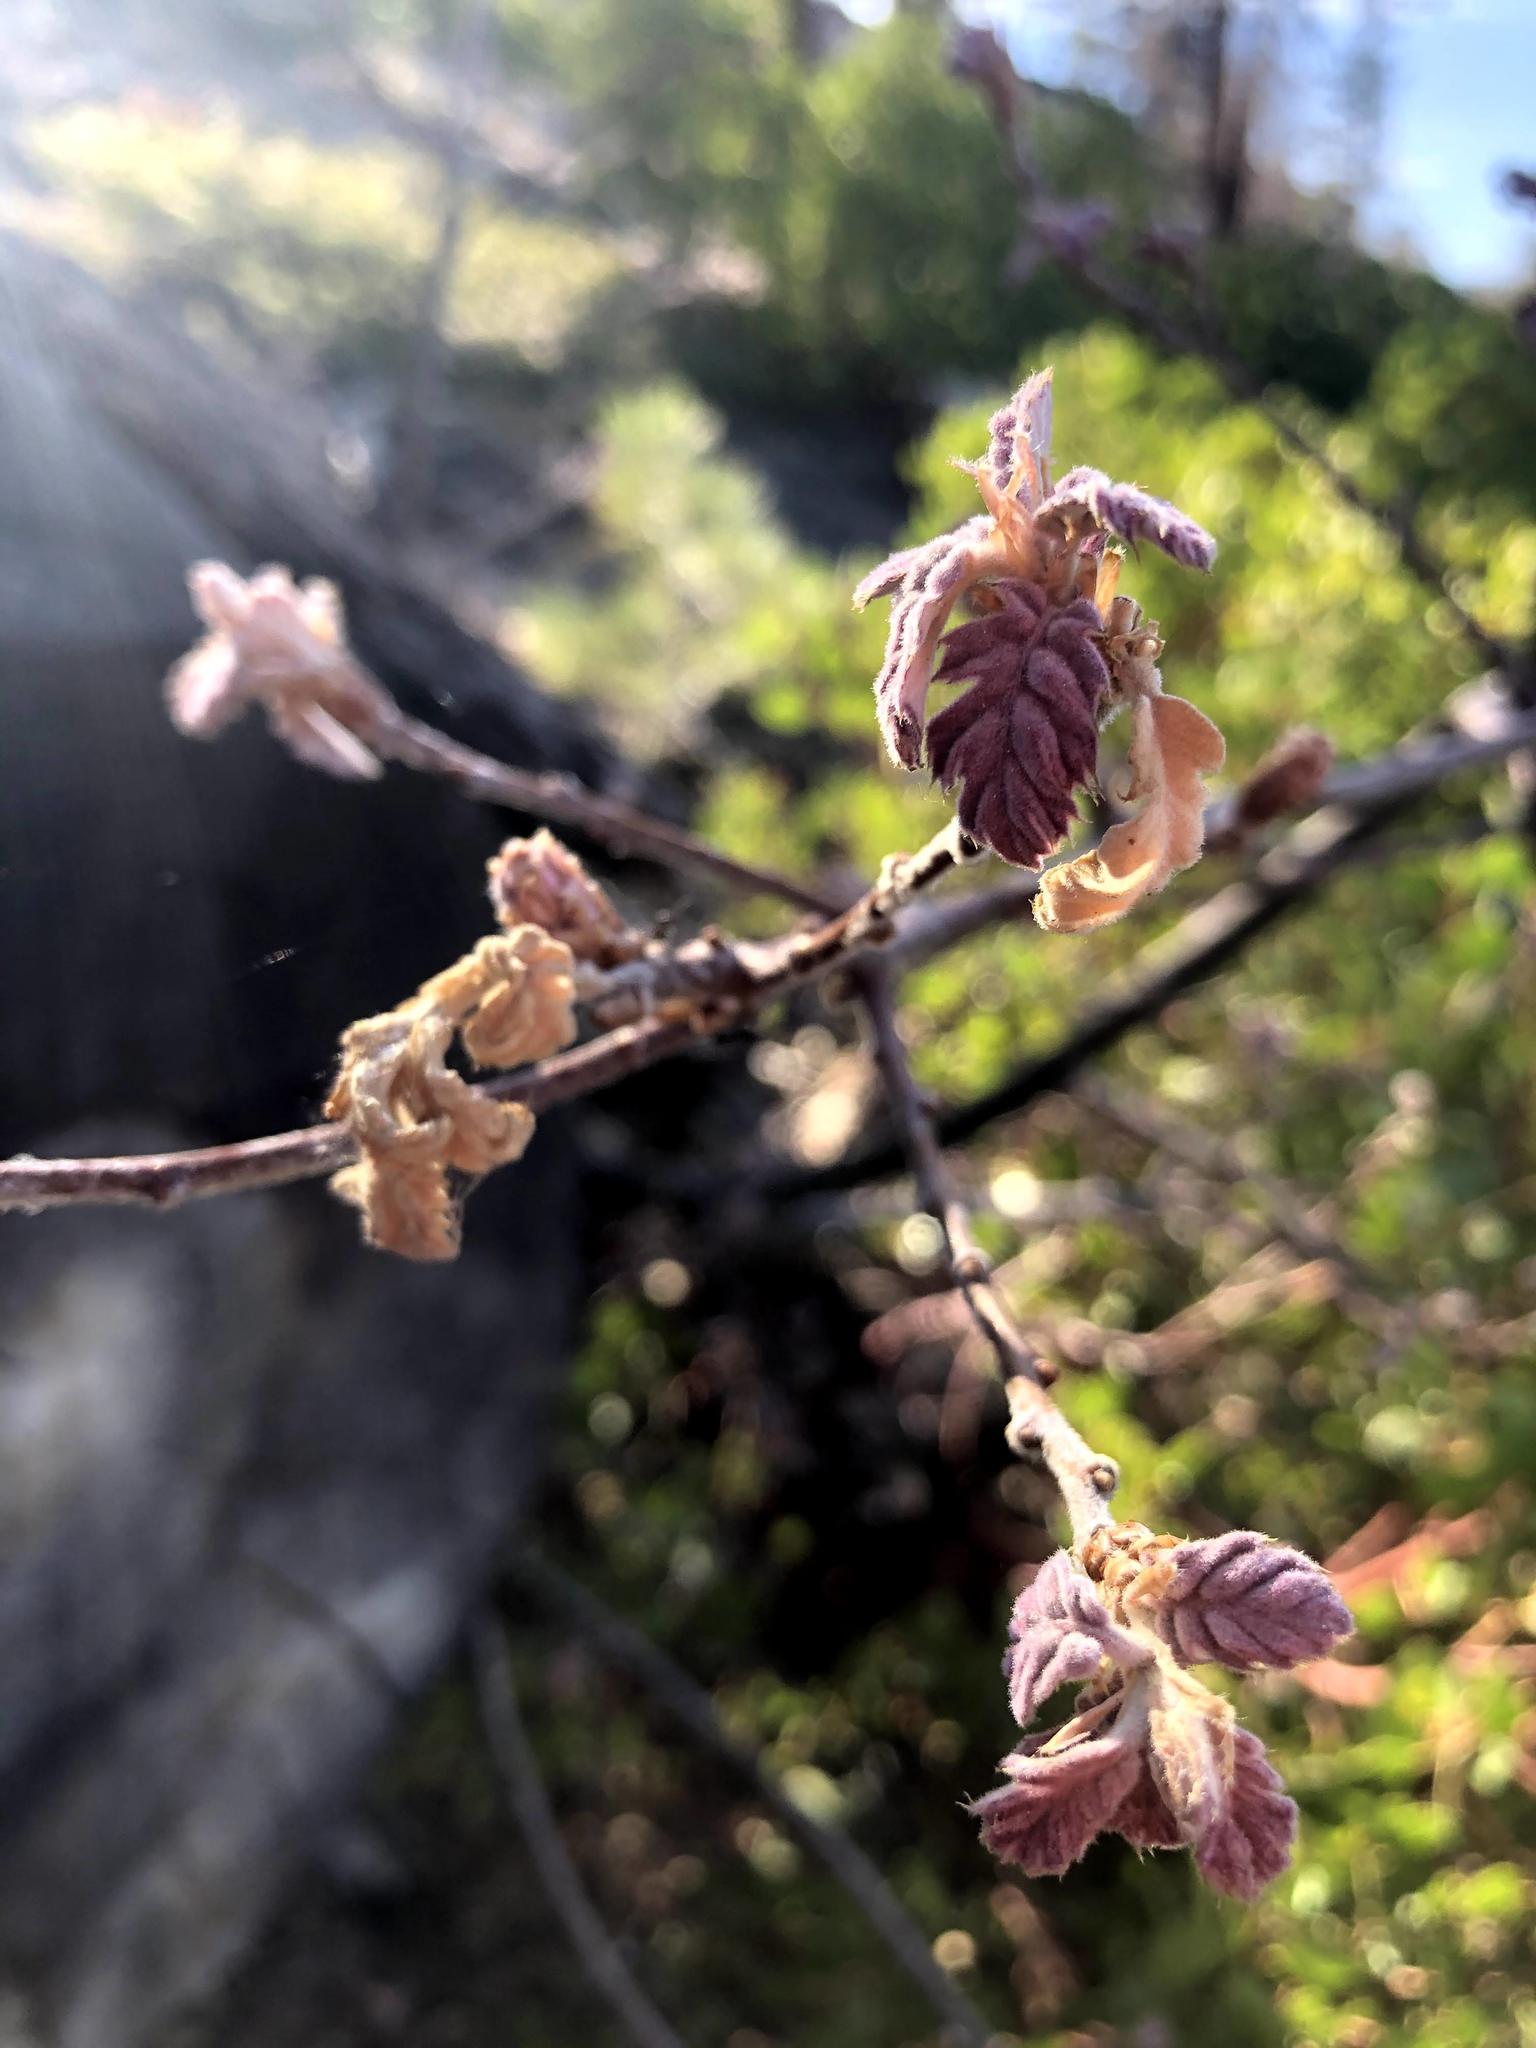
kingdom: Plantae
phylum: Tracheophyta
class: Magnoliopsida
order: Fagales
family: Fagaceae
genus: Quercus
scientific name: Quercus kelloggii
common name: California black oak
